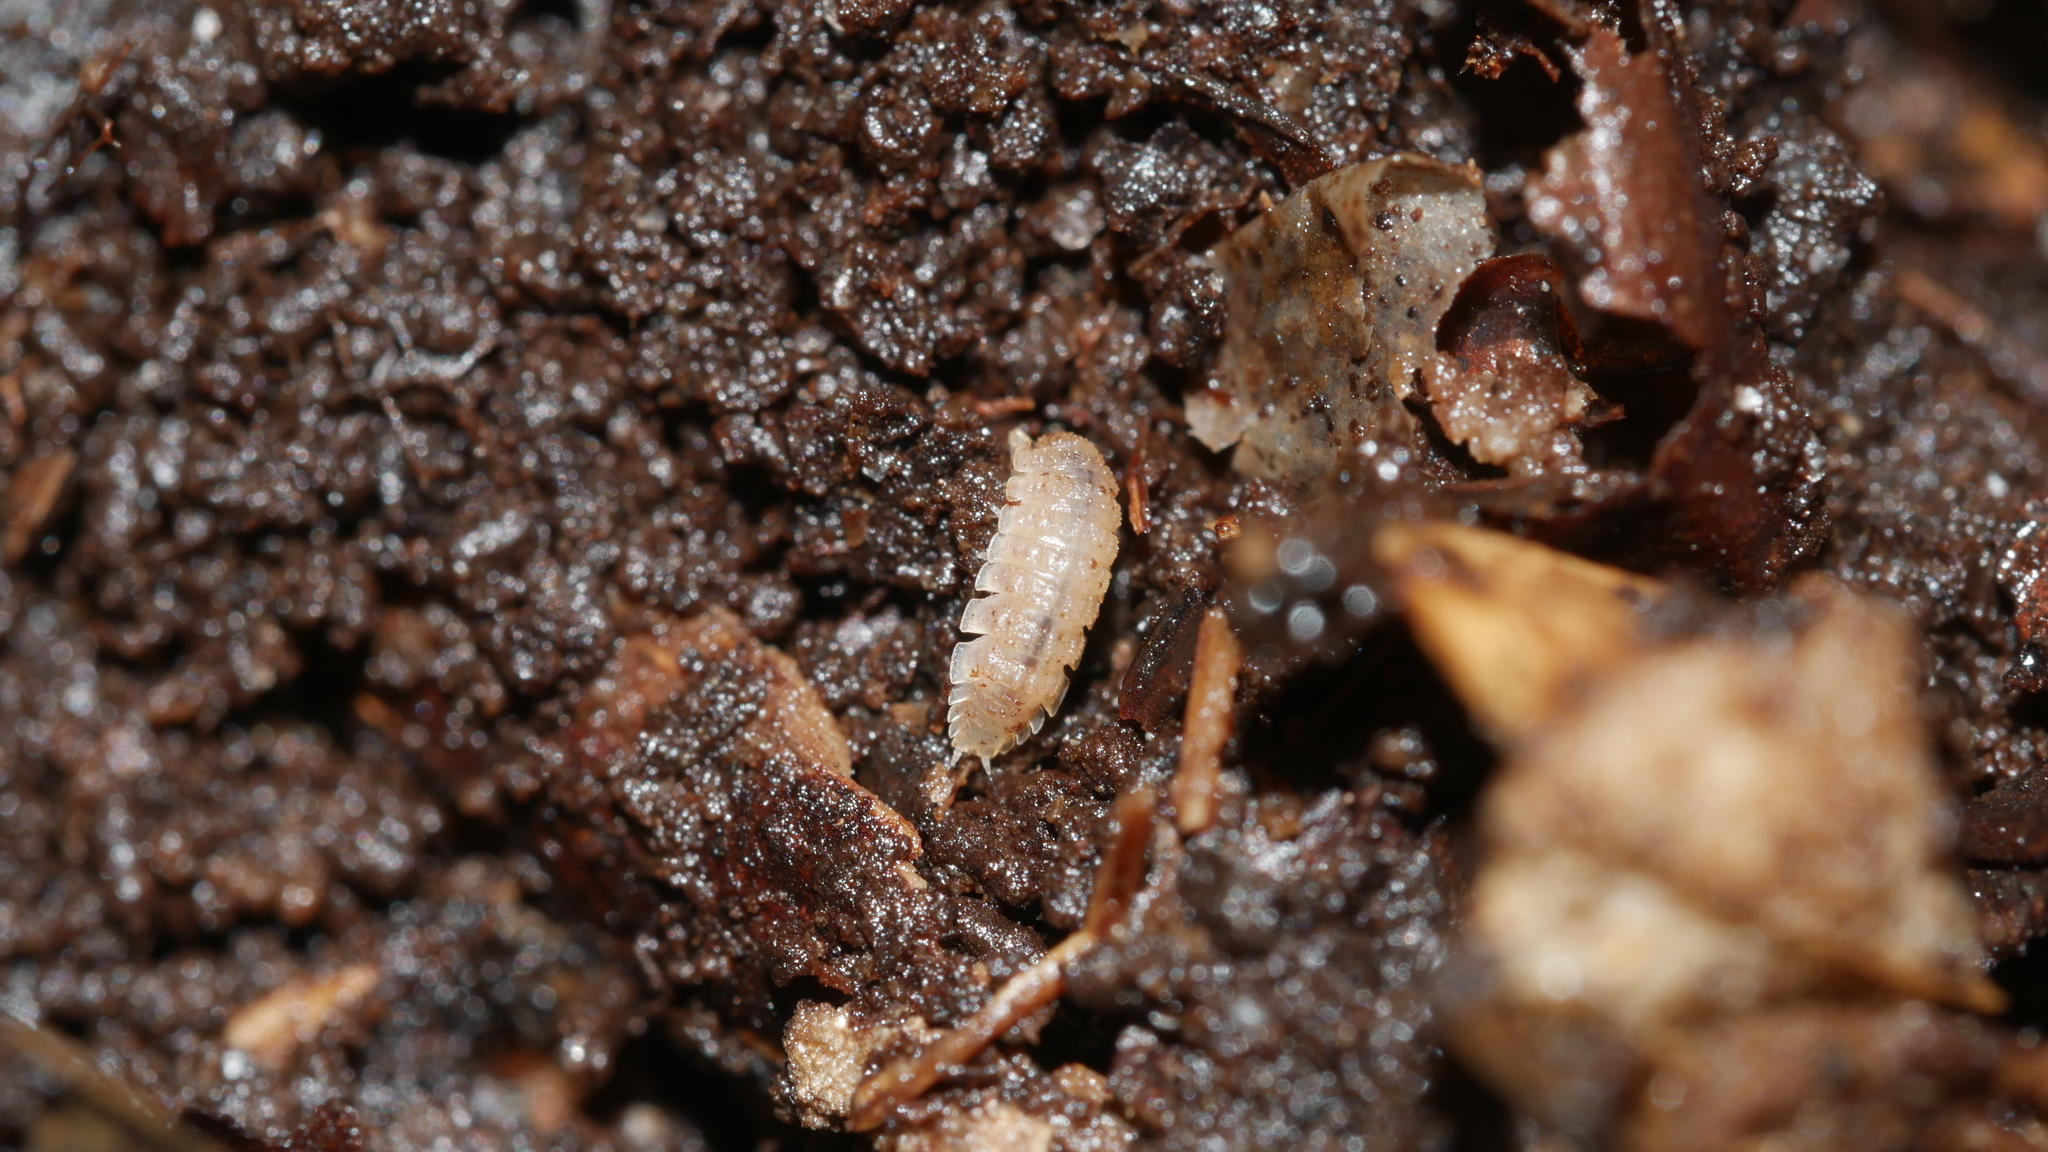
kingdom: Animalia
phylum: Arthropoda
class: Malacostraca
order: Isopoda
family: Trichoniscidae
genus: Haplophthalmus
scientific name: Haplophthalmus danicus
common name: Pillbug
